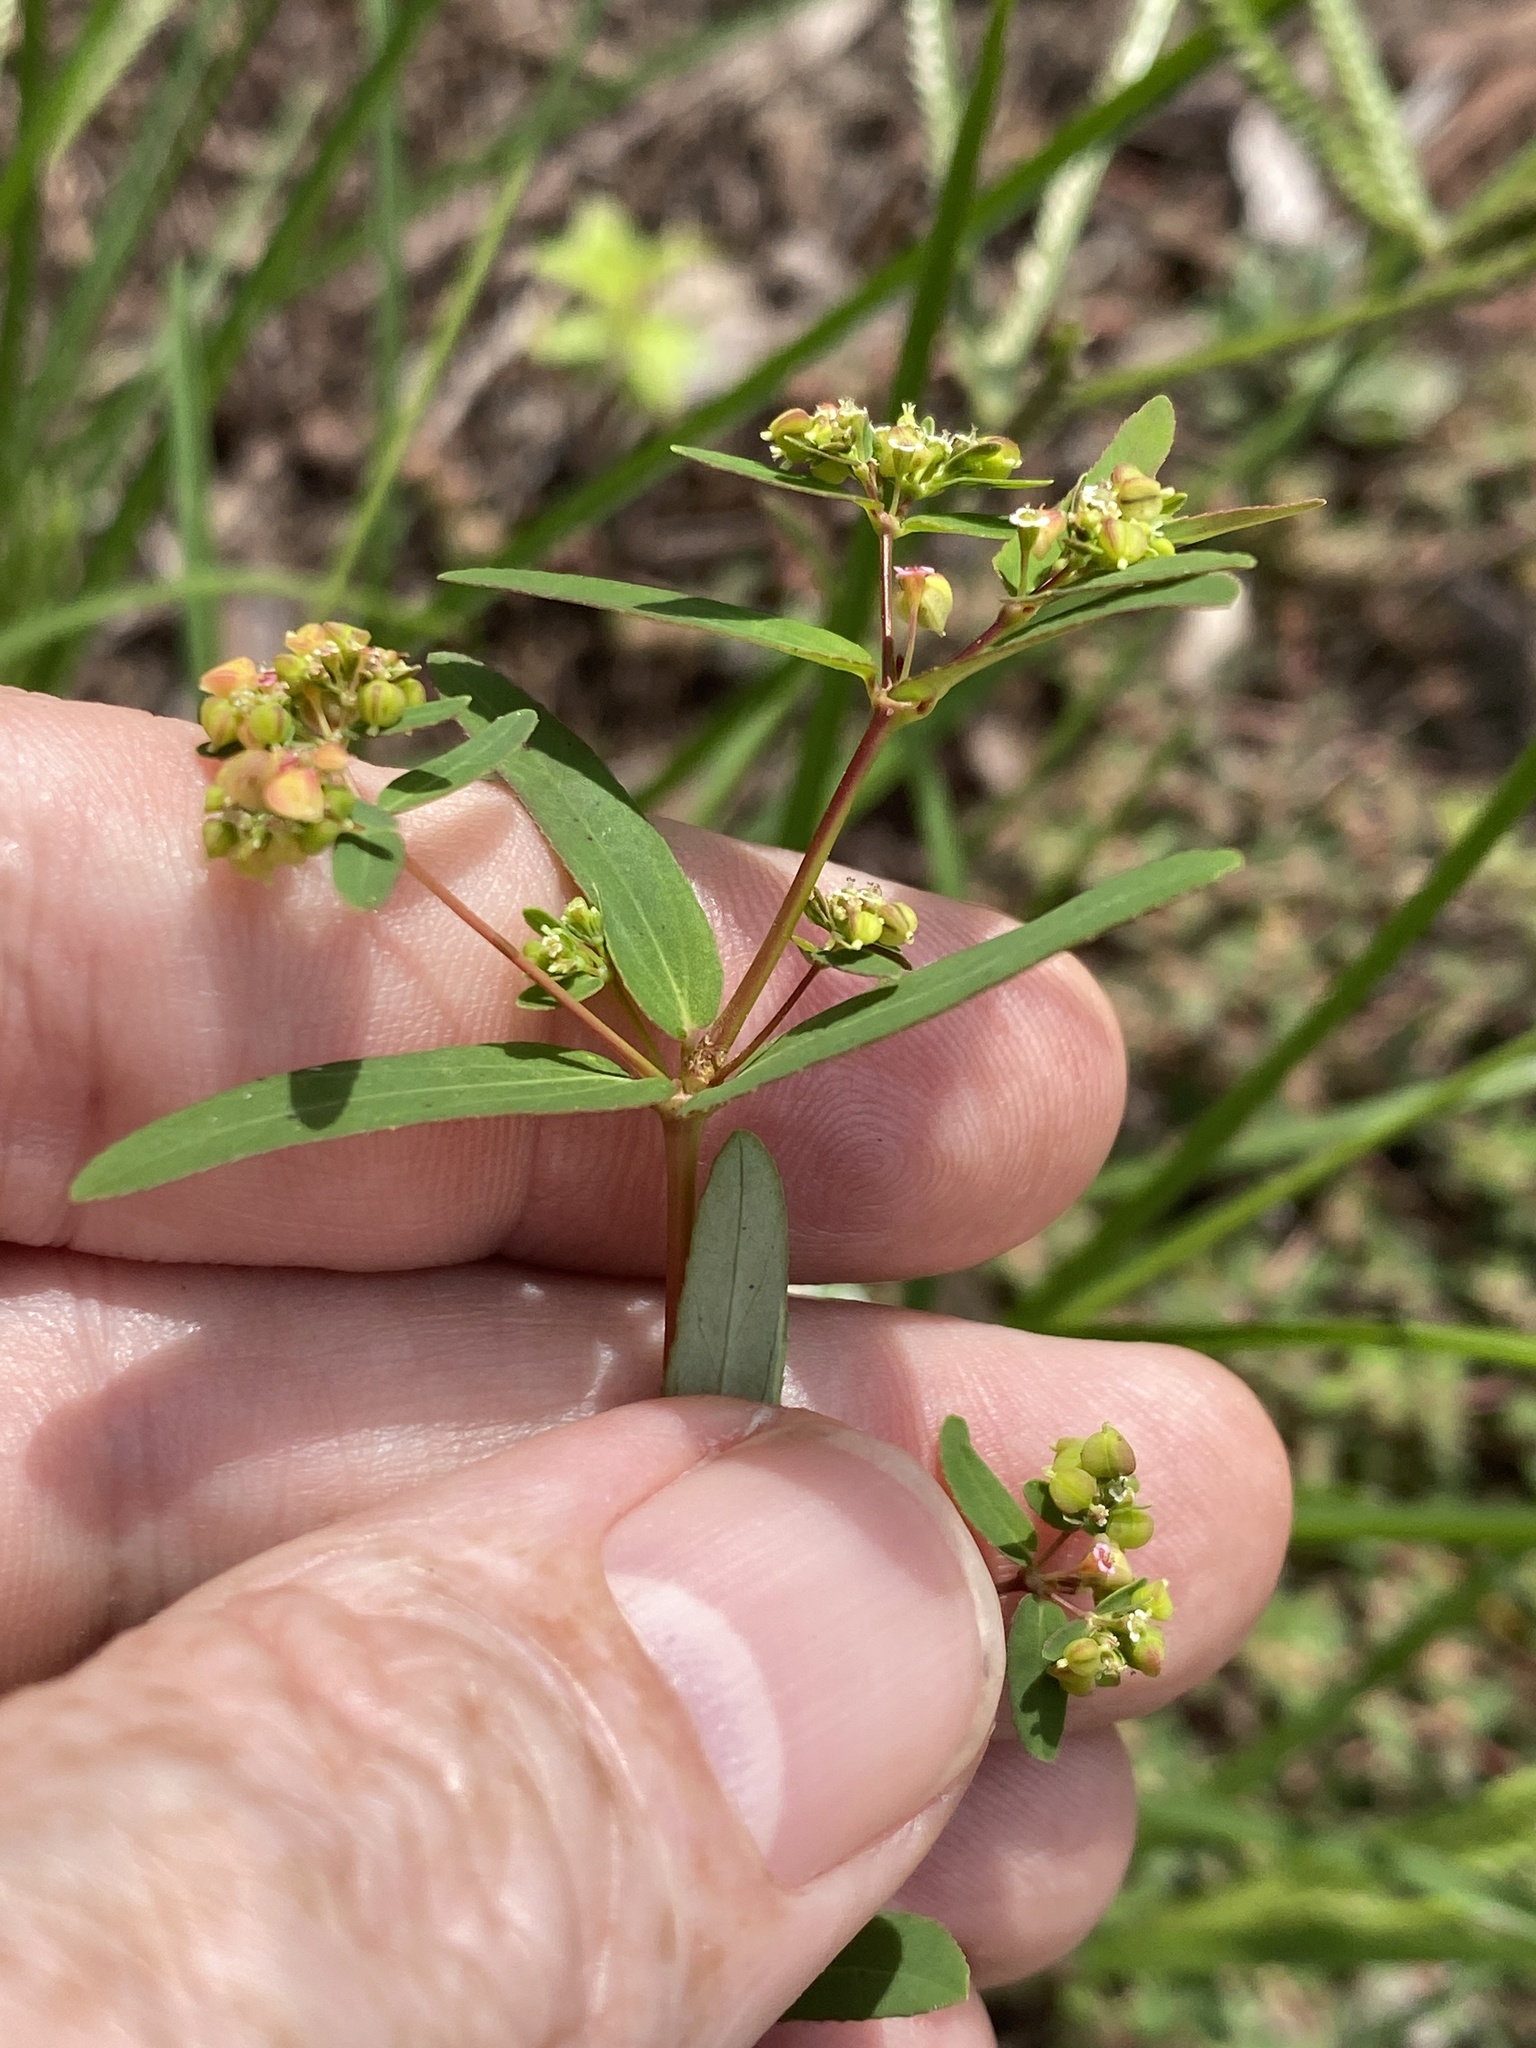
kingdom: Plantae
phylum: Tracheophyta
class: Magnoliopsida
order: Malpighiales
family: Euphorbiaceae
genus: Euphorbia
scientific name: Euphorbia nutans
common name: Eyebane
